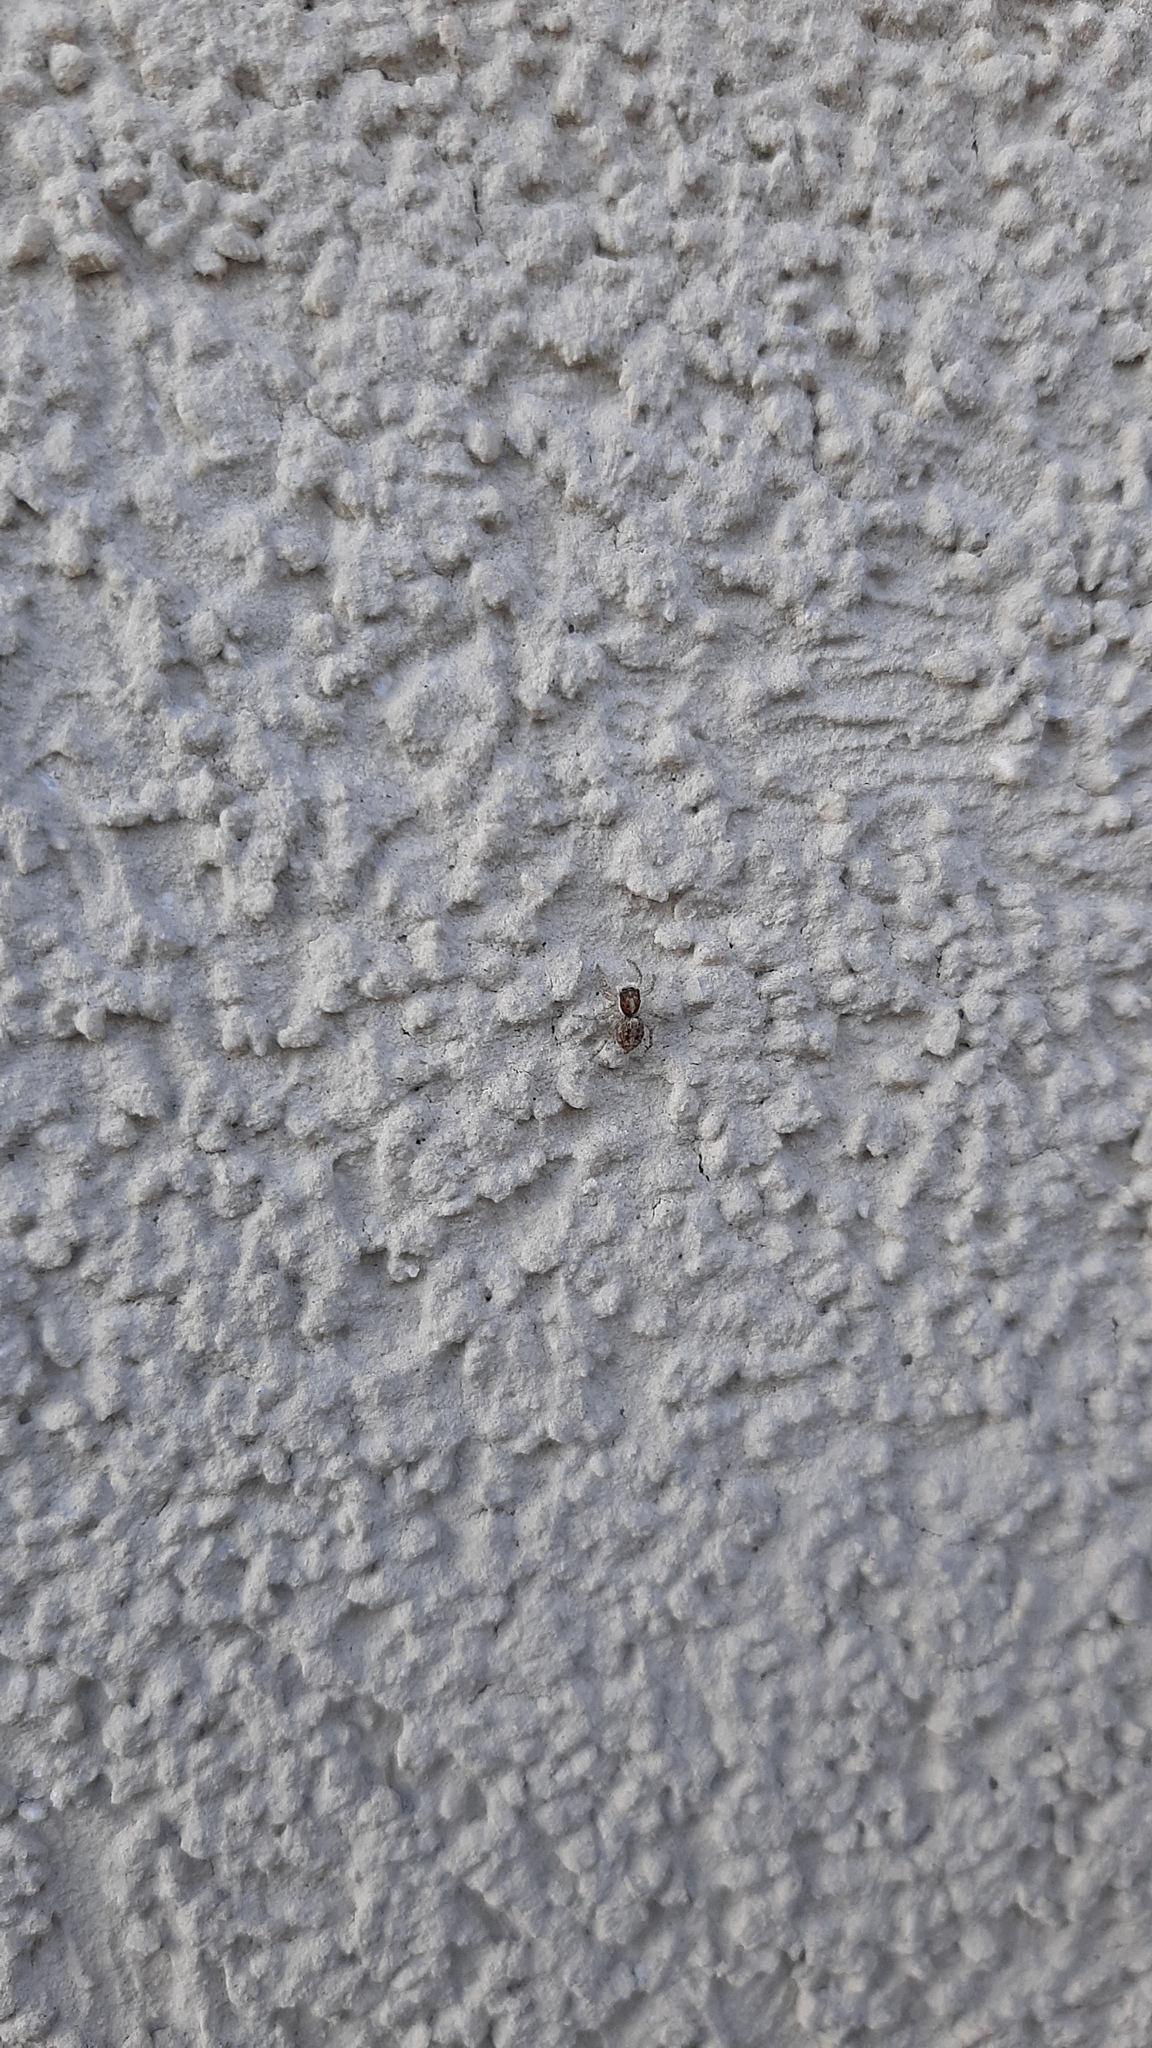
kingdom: Animalia
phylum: Arthropoda
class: Arachnida
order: Araneae
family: Salticidae
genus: Menemerus
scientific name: Menemerus semilimbatus
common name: Jumping spider
